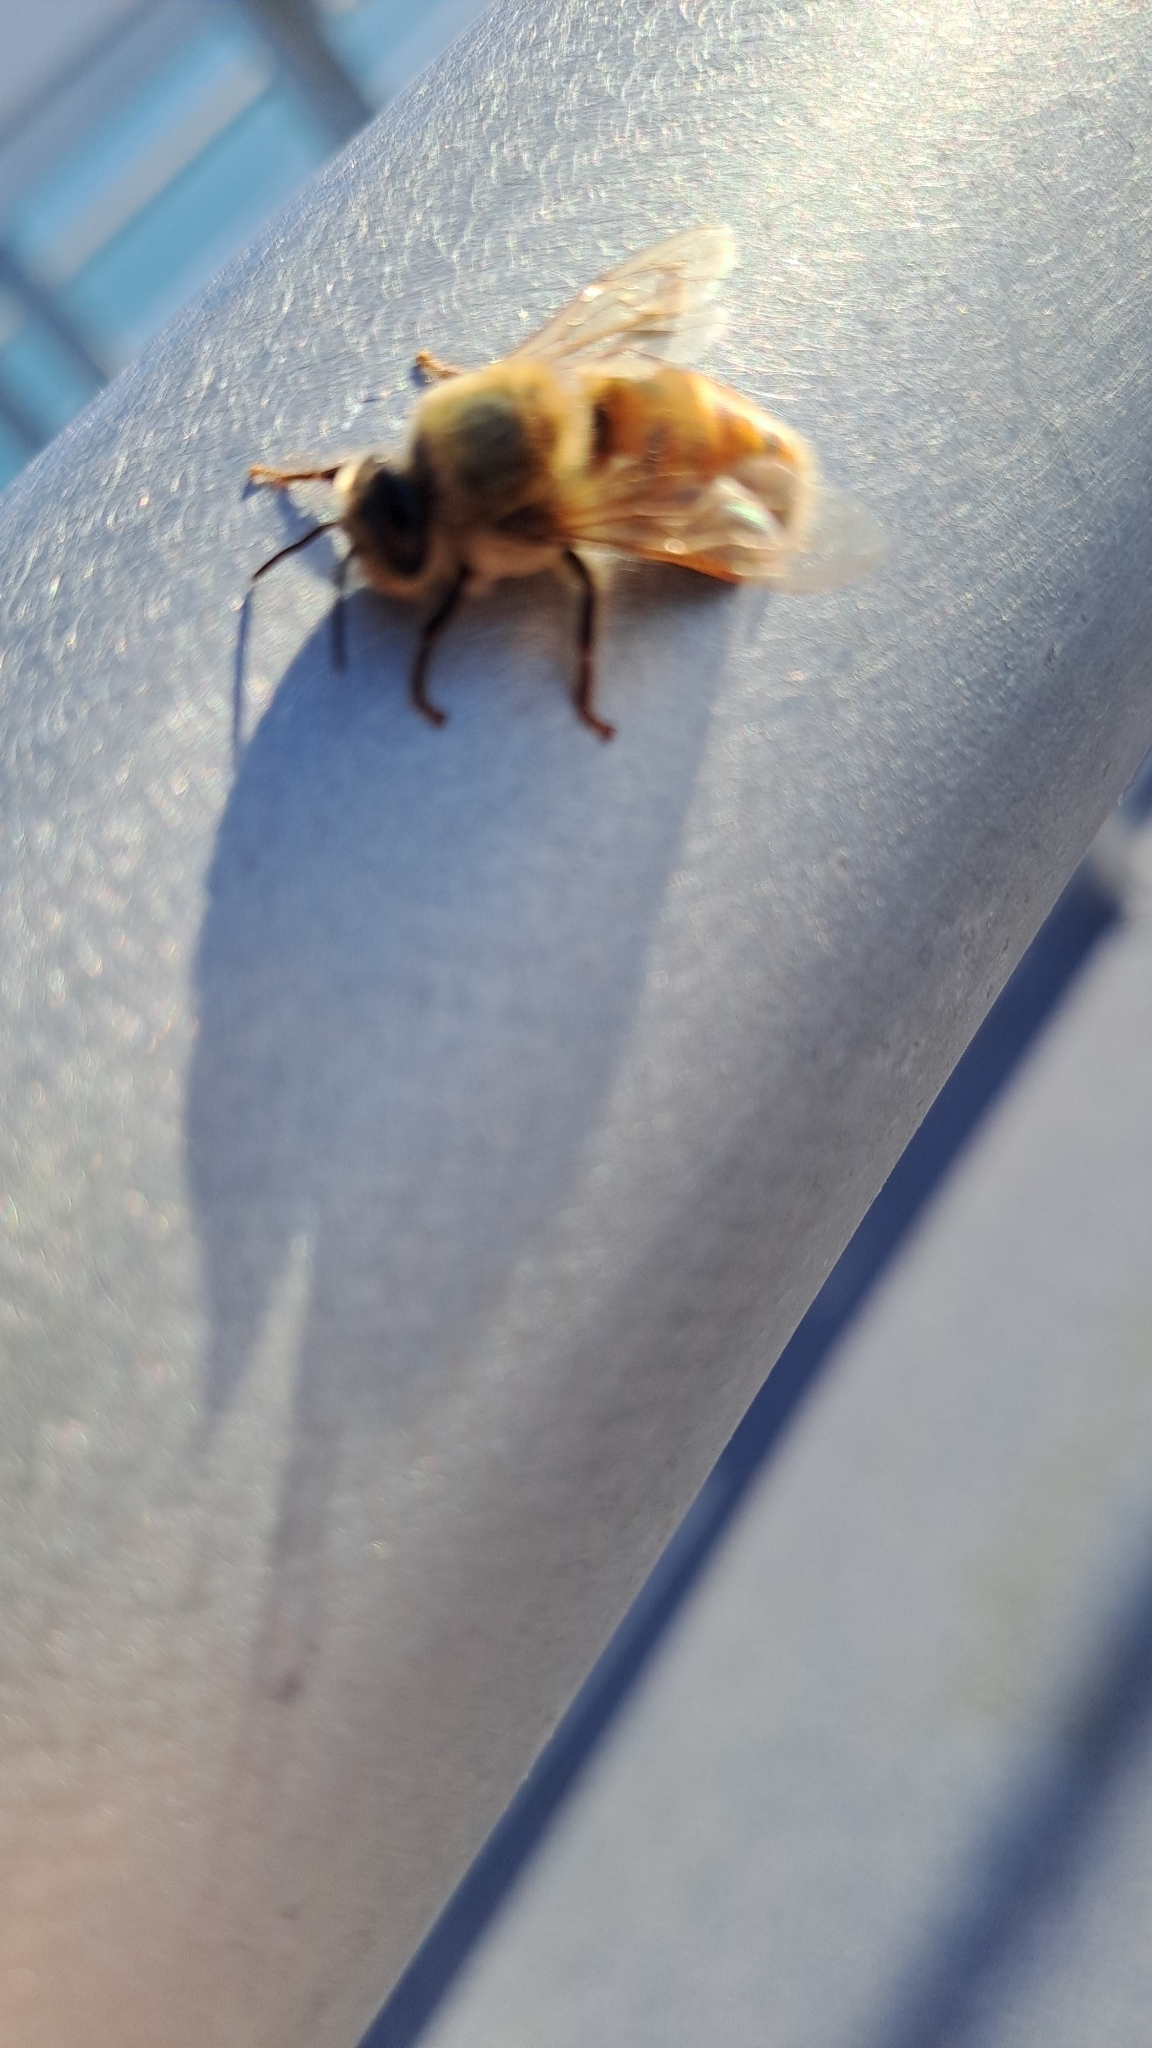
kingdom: Animalia
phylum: Arthropoda
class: Insecta
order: Hymenoptera
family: Apidae
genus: Apis
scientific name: Apis mellifera
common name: Honey bee
